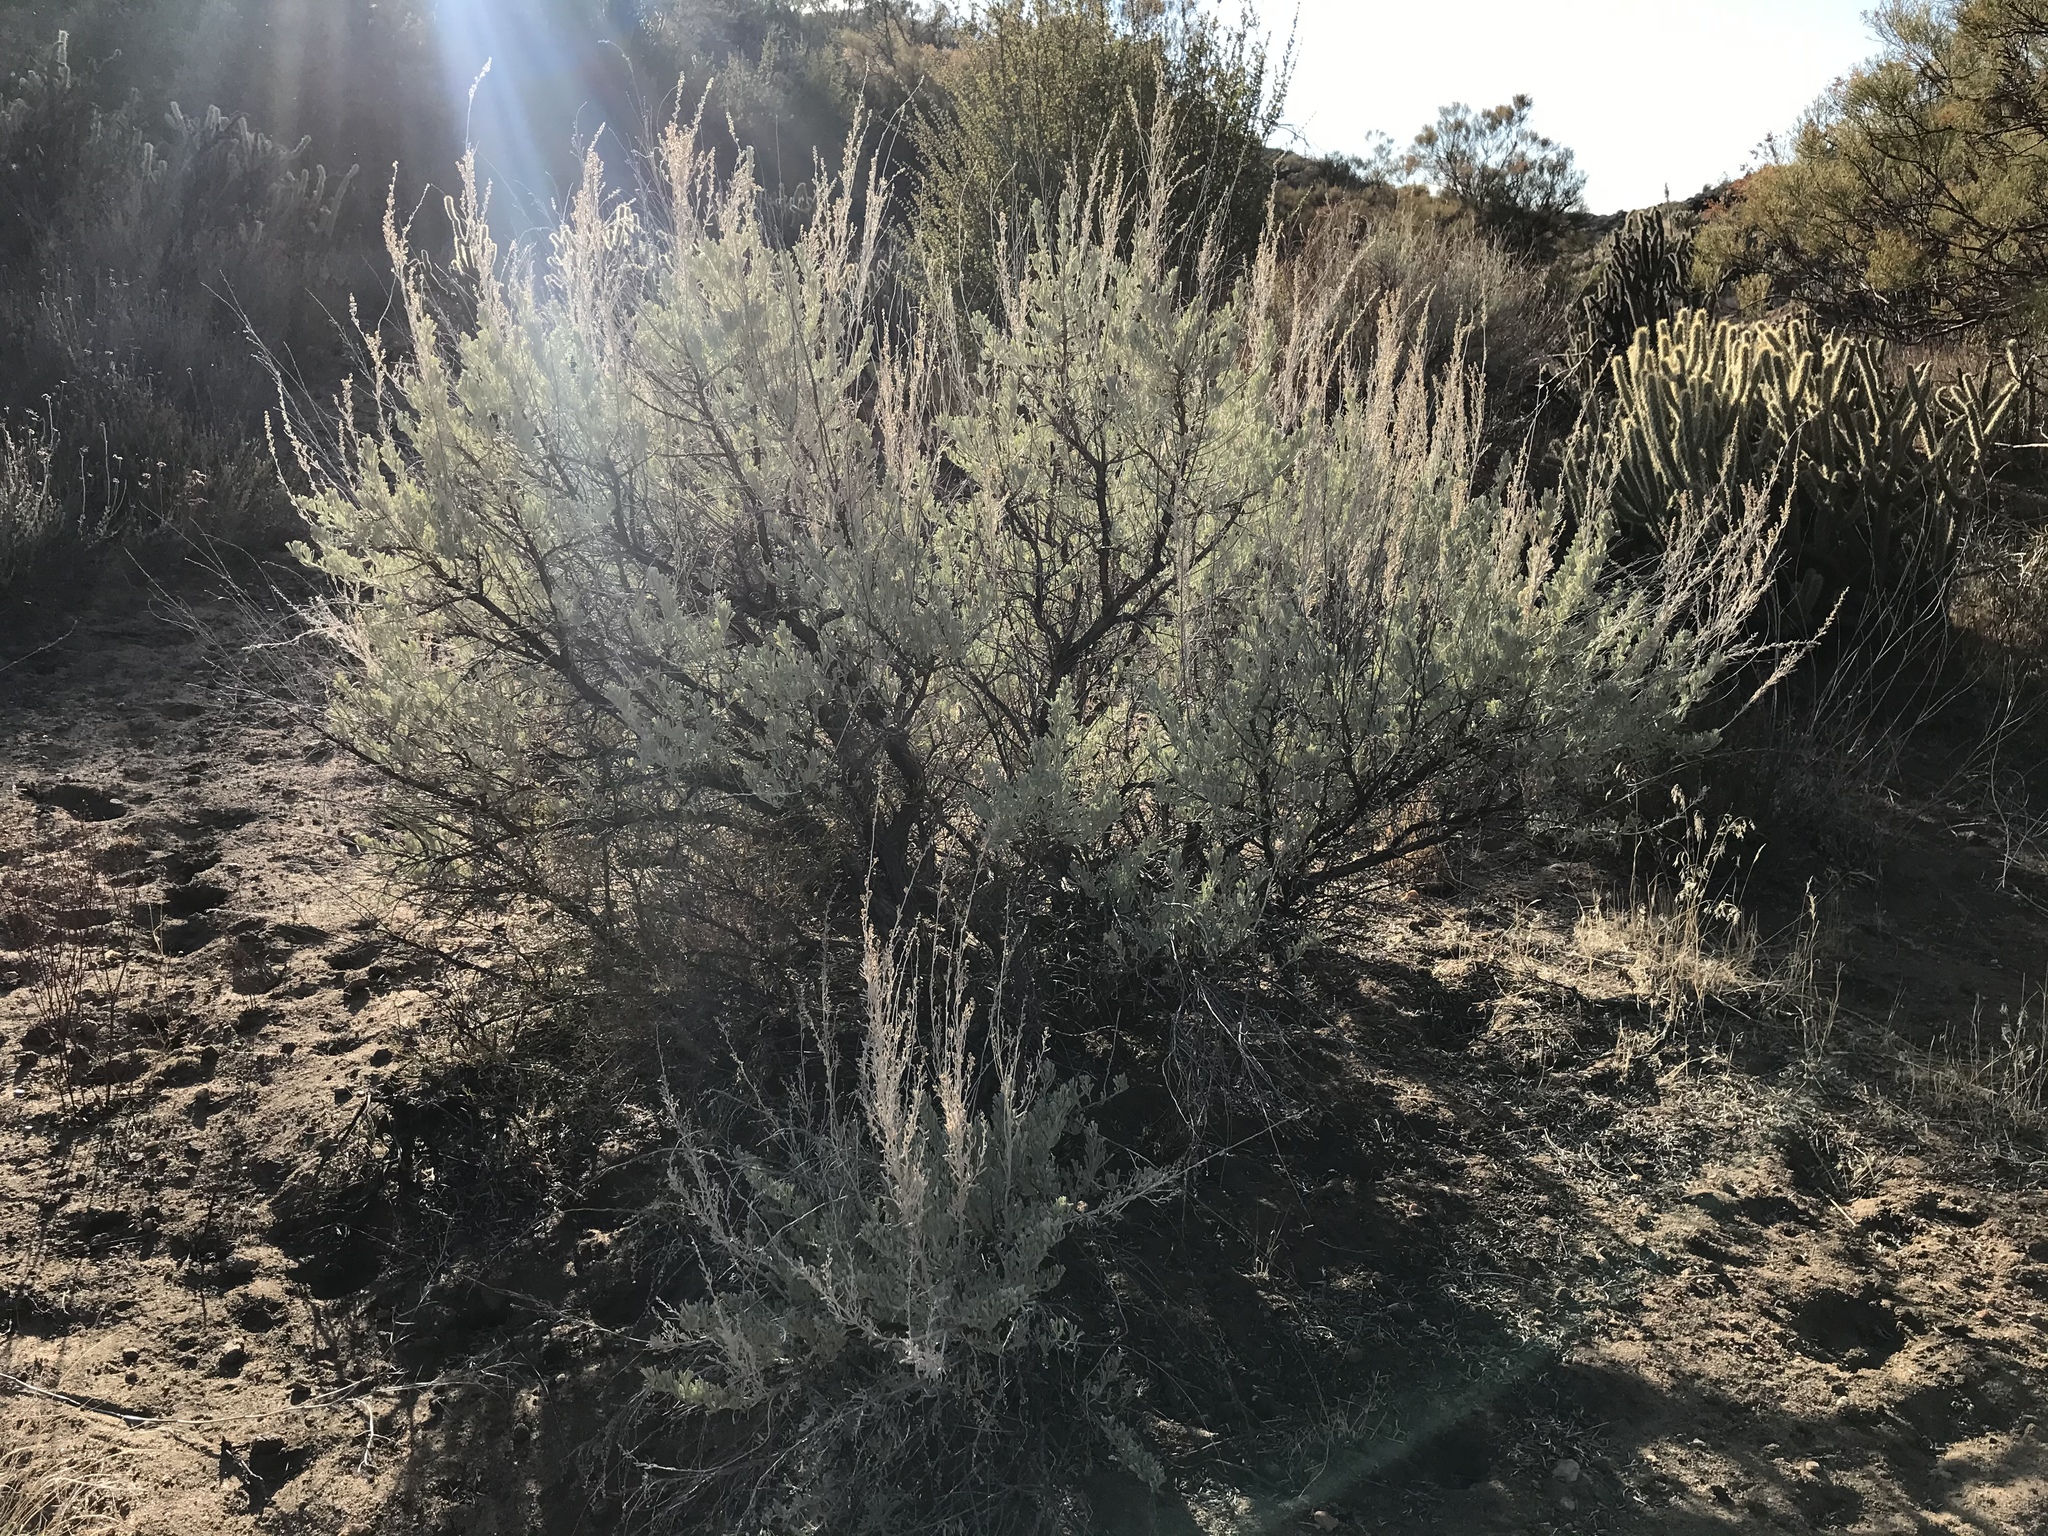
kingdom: Plantae
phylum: Tracheophyta
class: Magnoliopsida
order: Asterales
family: Asteraceae
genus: Artemisia
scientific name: Artemisia tridentata
